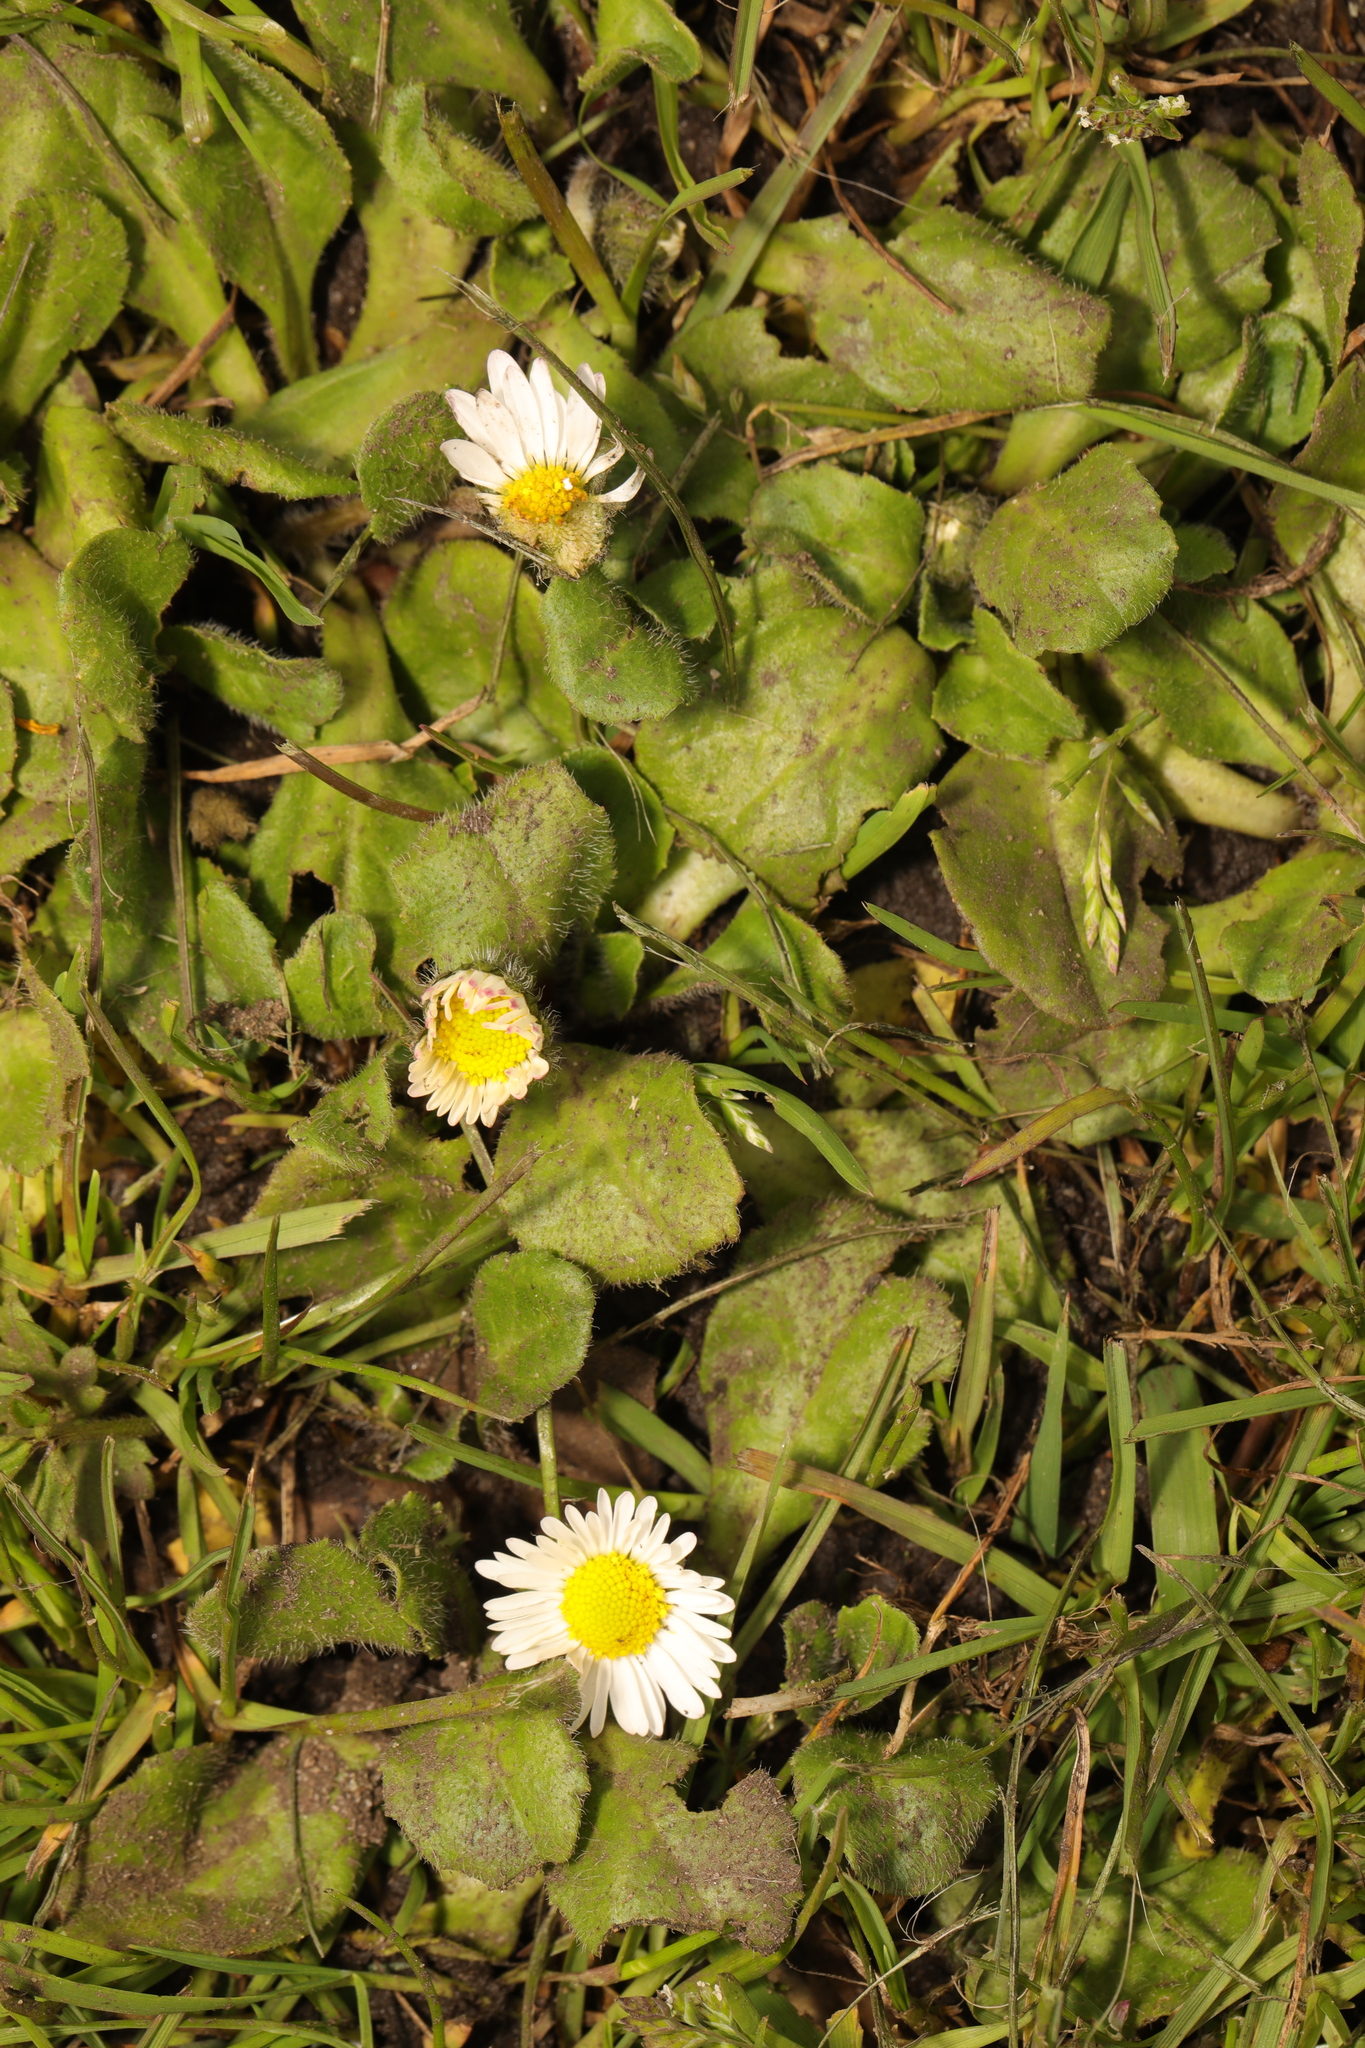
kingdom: Plantae
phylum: Tracheophyta
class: Magnoliopsida
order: Asterales
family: Asteraceae
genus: Bellis
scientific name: Bellis perennis
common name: Lawndaisy
